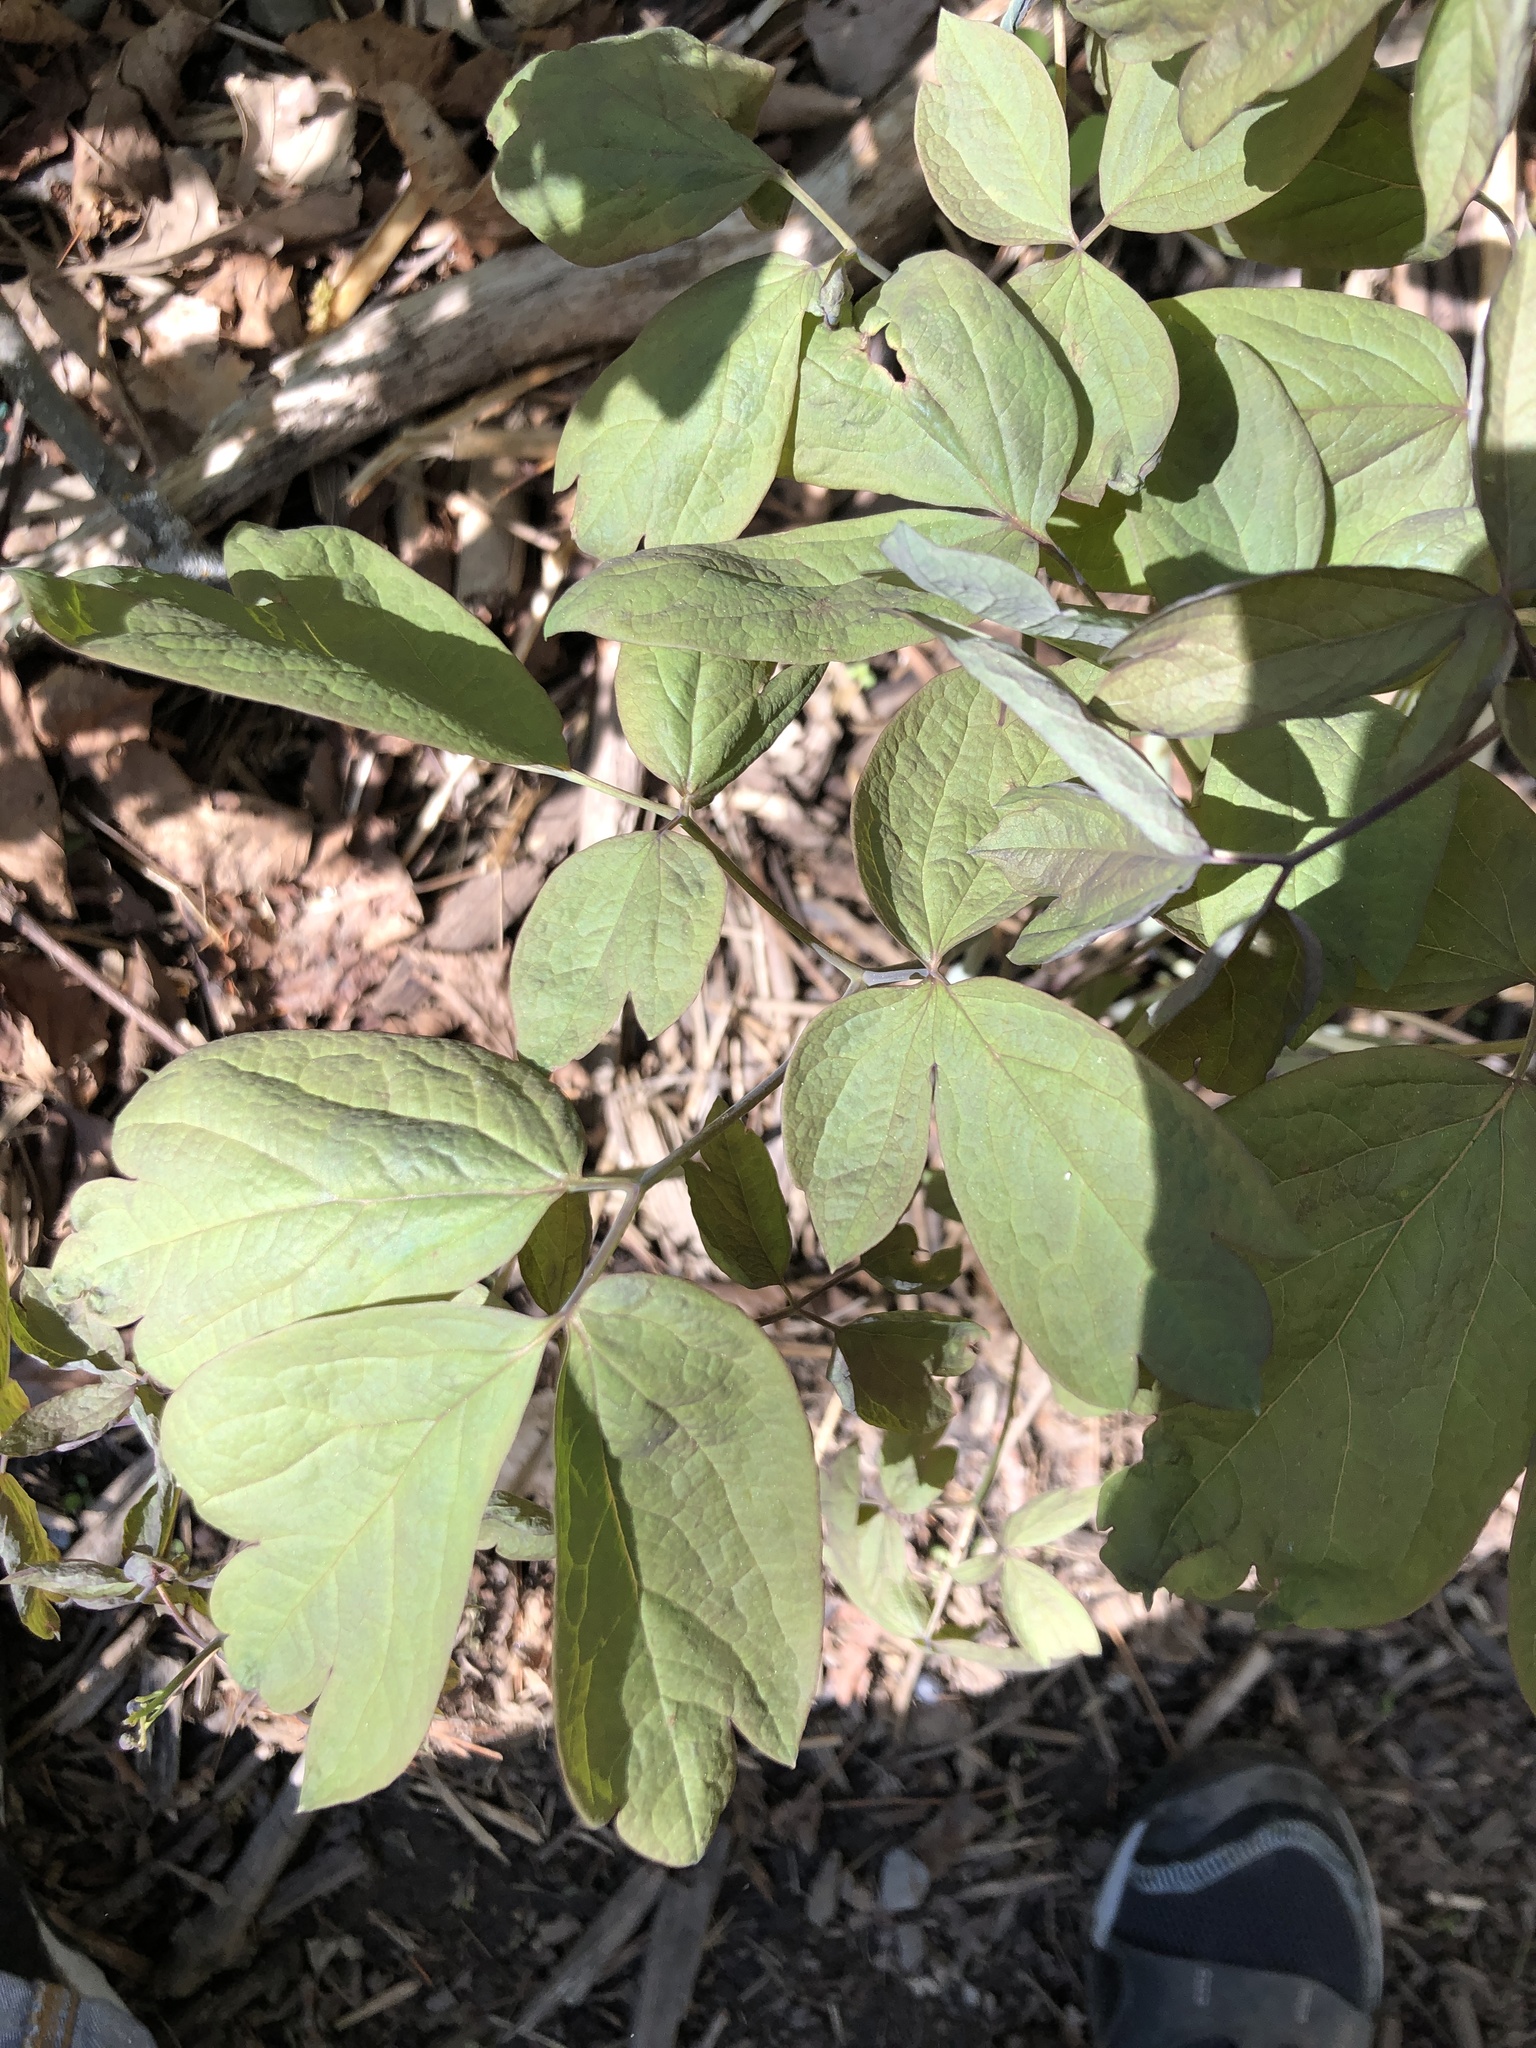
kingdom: Plantae
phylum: Tracheophyta
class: Magnoliopsida
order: Ranunculales
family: Berberidaceae
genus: Caulophyllum
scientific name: Caulophyllum giganteum
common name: Blue cohosh
